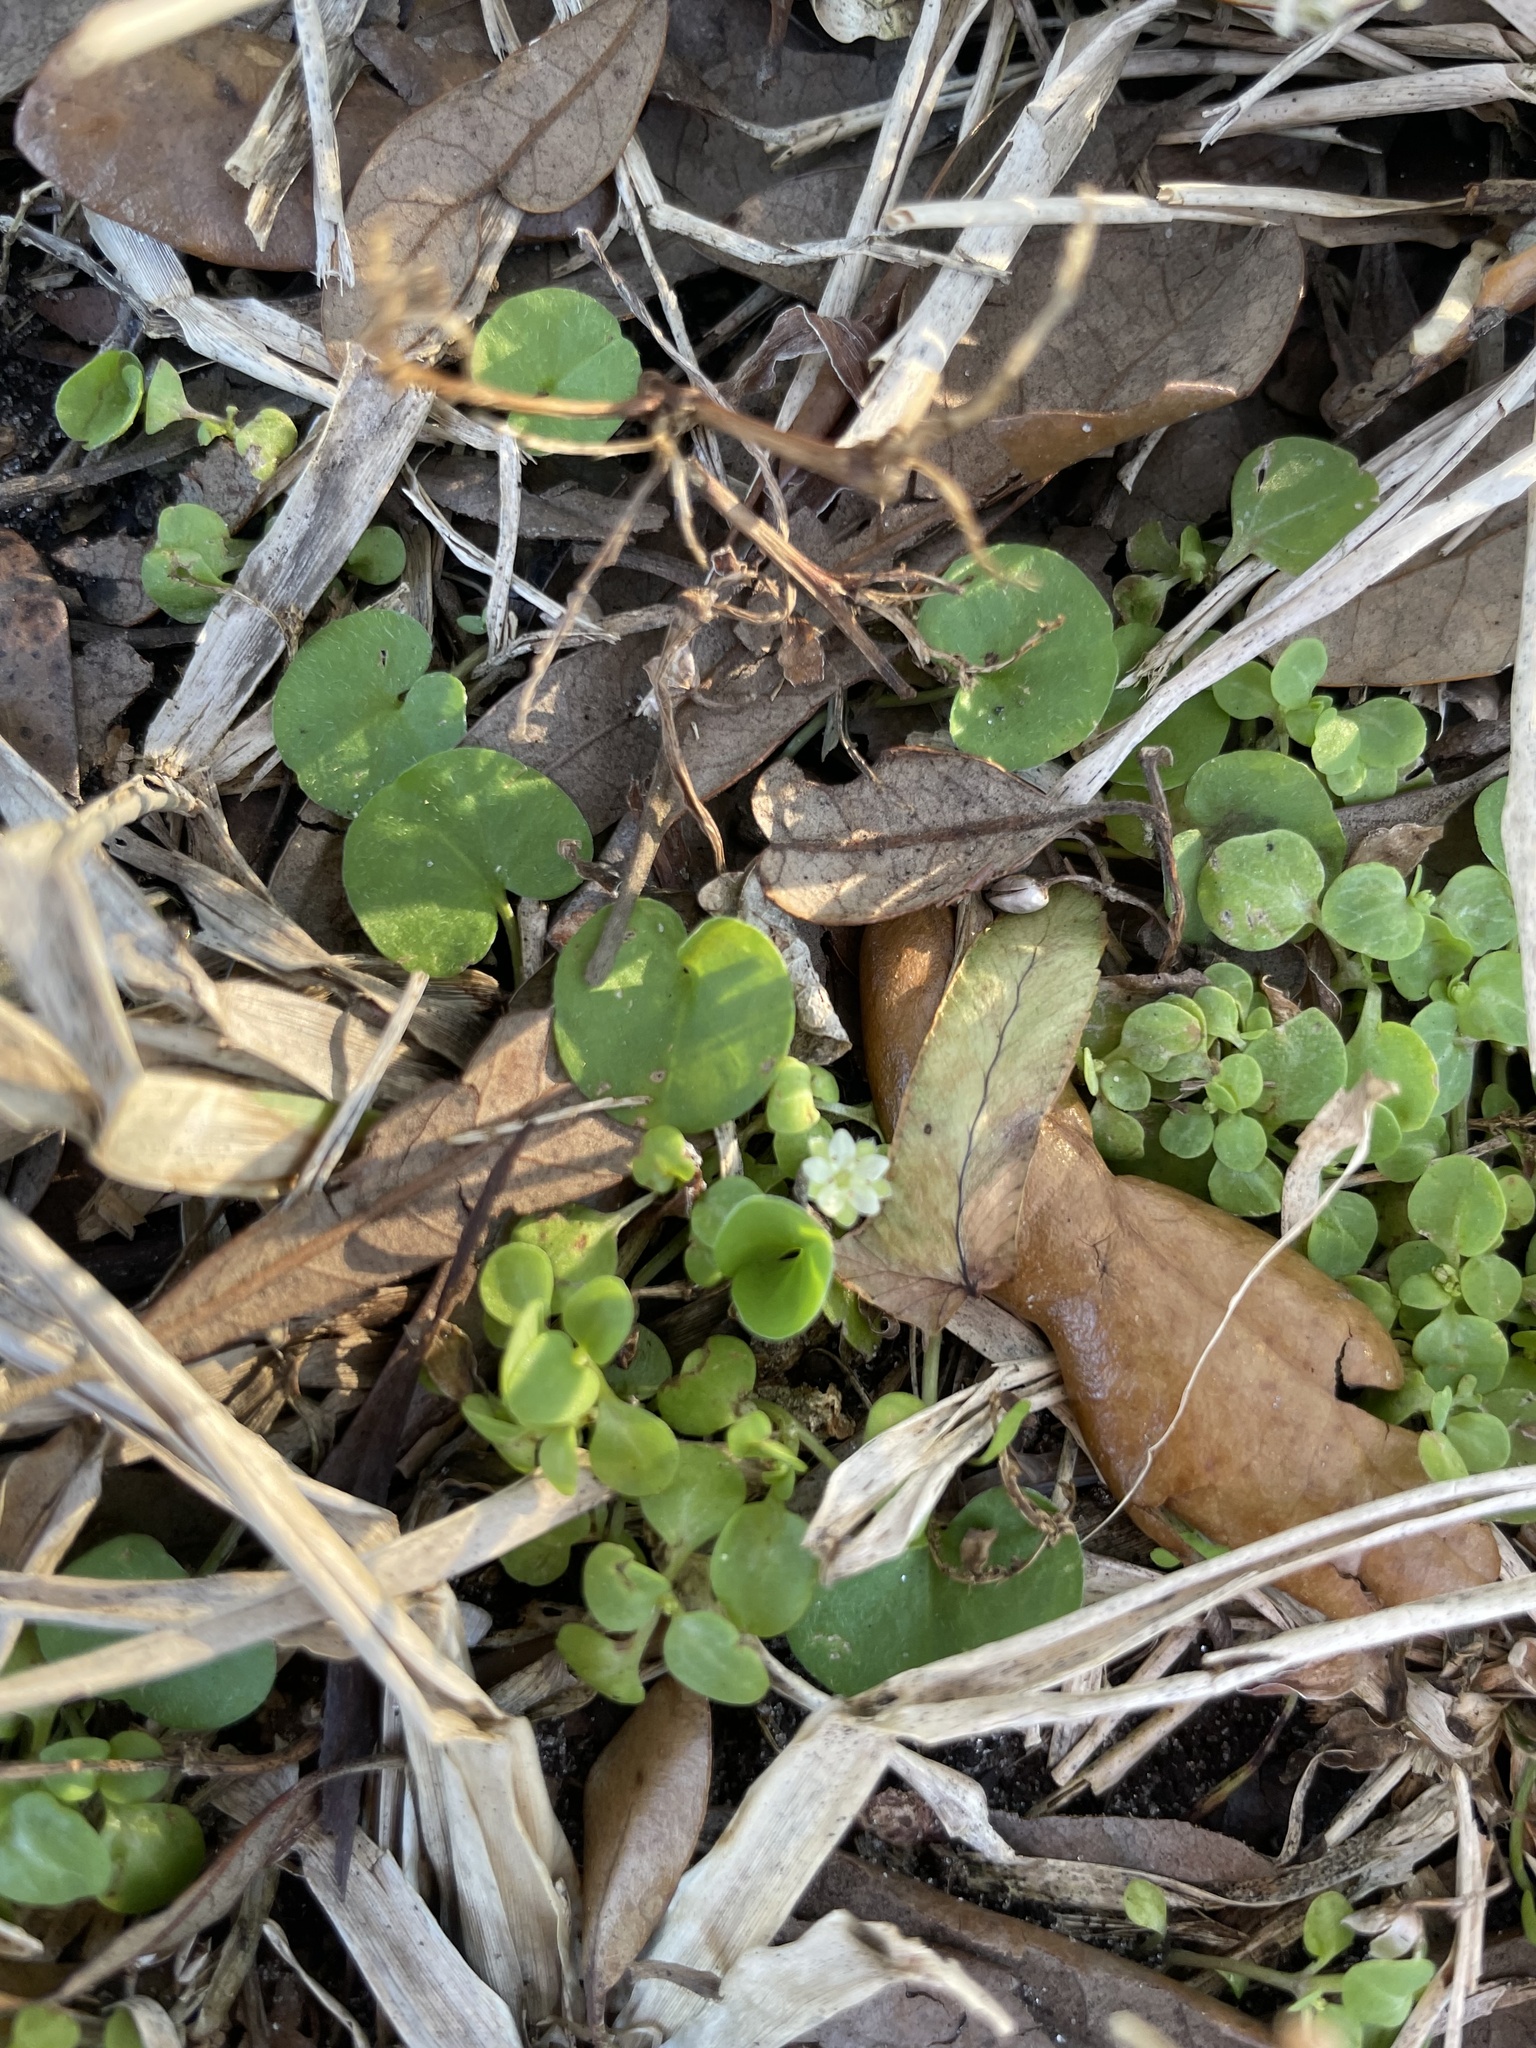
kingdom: Plantae
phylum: Tracheophyta
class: Magnoliopsida
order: Solanales
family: Convolvulaceae
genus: Dichondra
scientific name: Dichondra carolinensis
